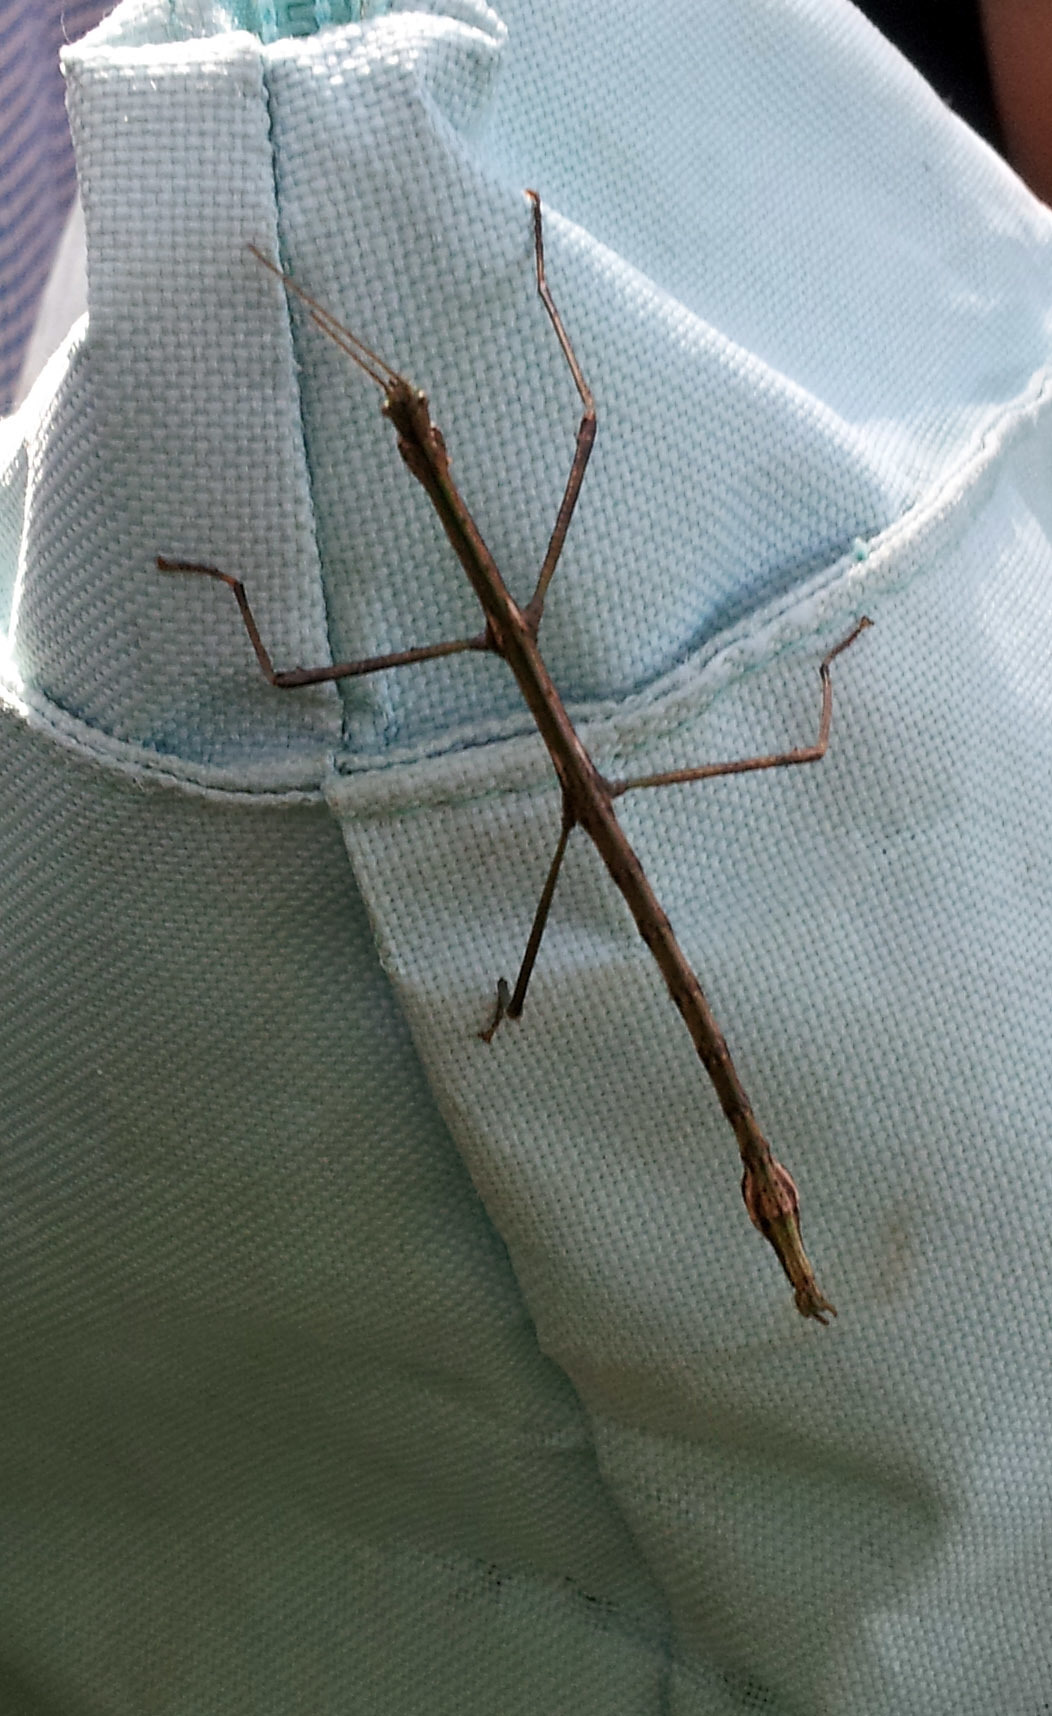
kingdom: Animalia
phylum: Arthropoda
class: Insecta
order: Phasmida
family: Phasmatidae
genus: Clitarchus
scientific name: Clitarchus hookeri
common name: Smooth stick insect
